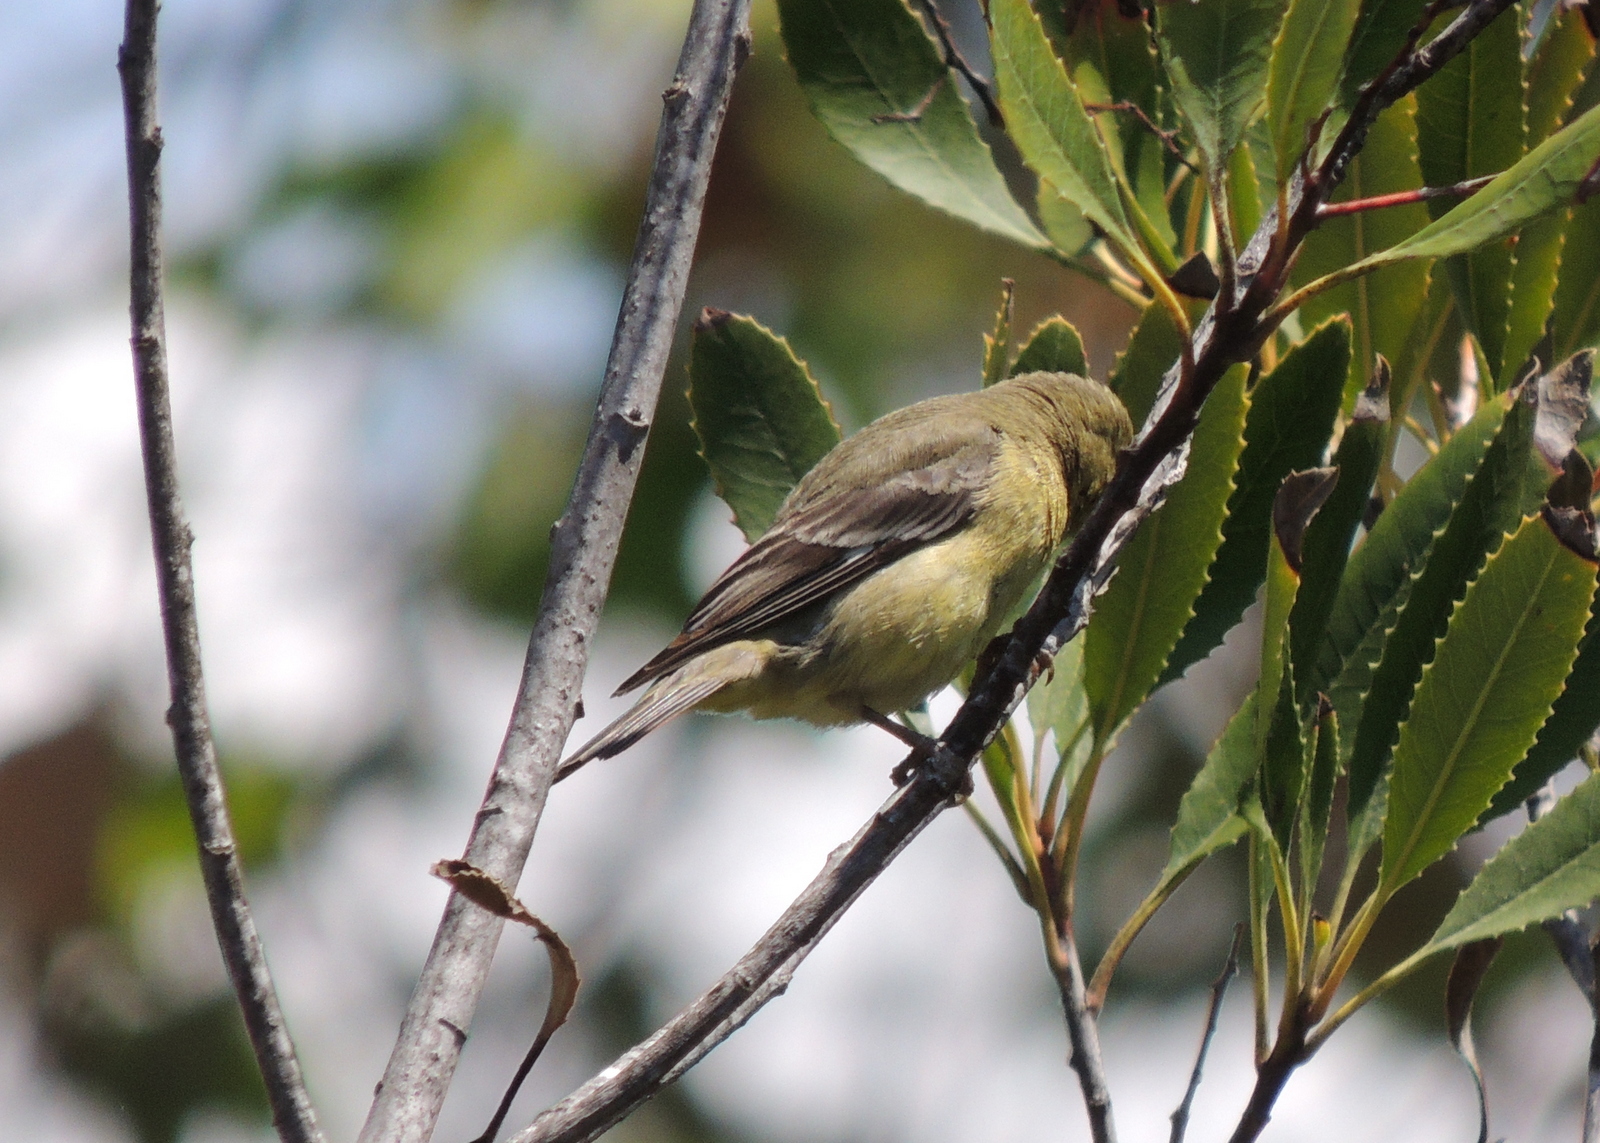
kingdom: Animalia
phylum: Chordata
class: Aves
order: Passeriformes
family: Fringillidae
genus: Spinus
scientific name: Spinus psaltria
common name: Lesser goldfinch
